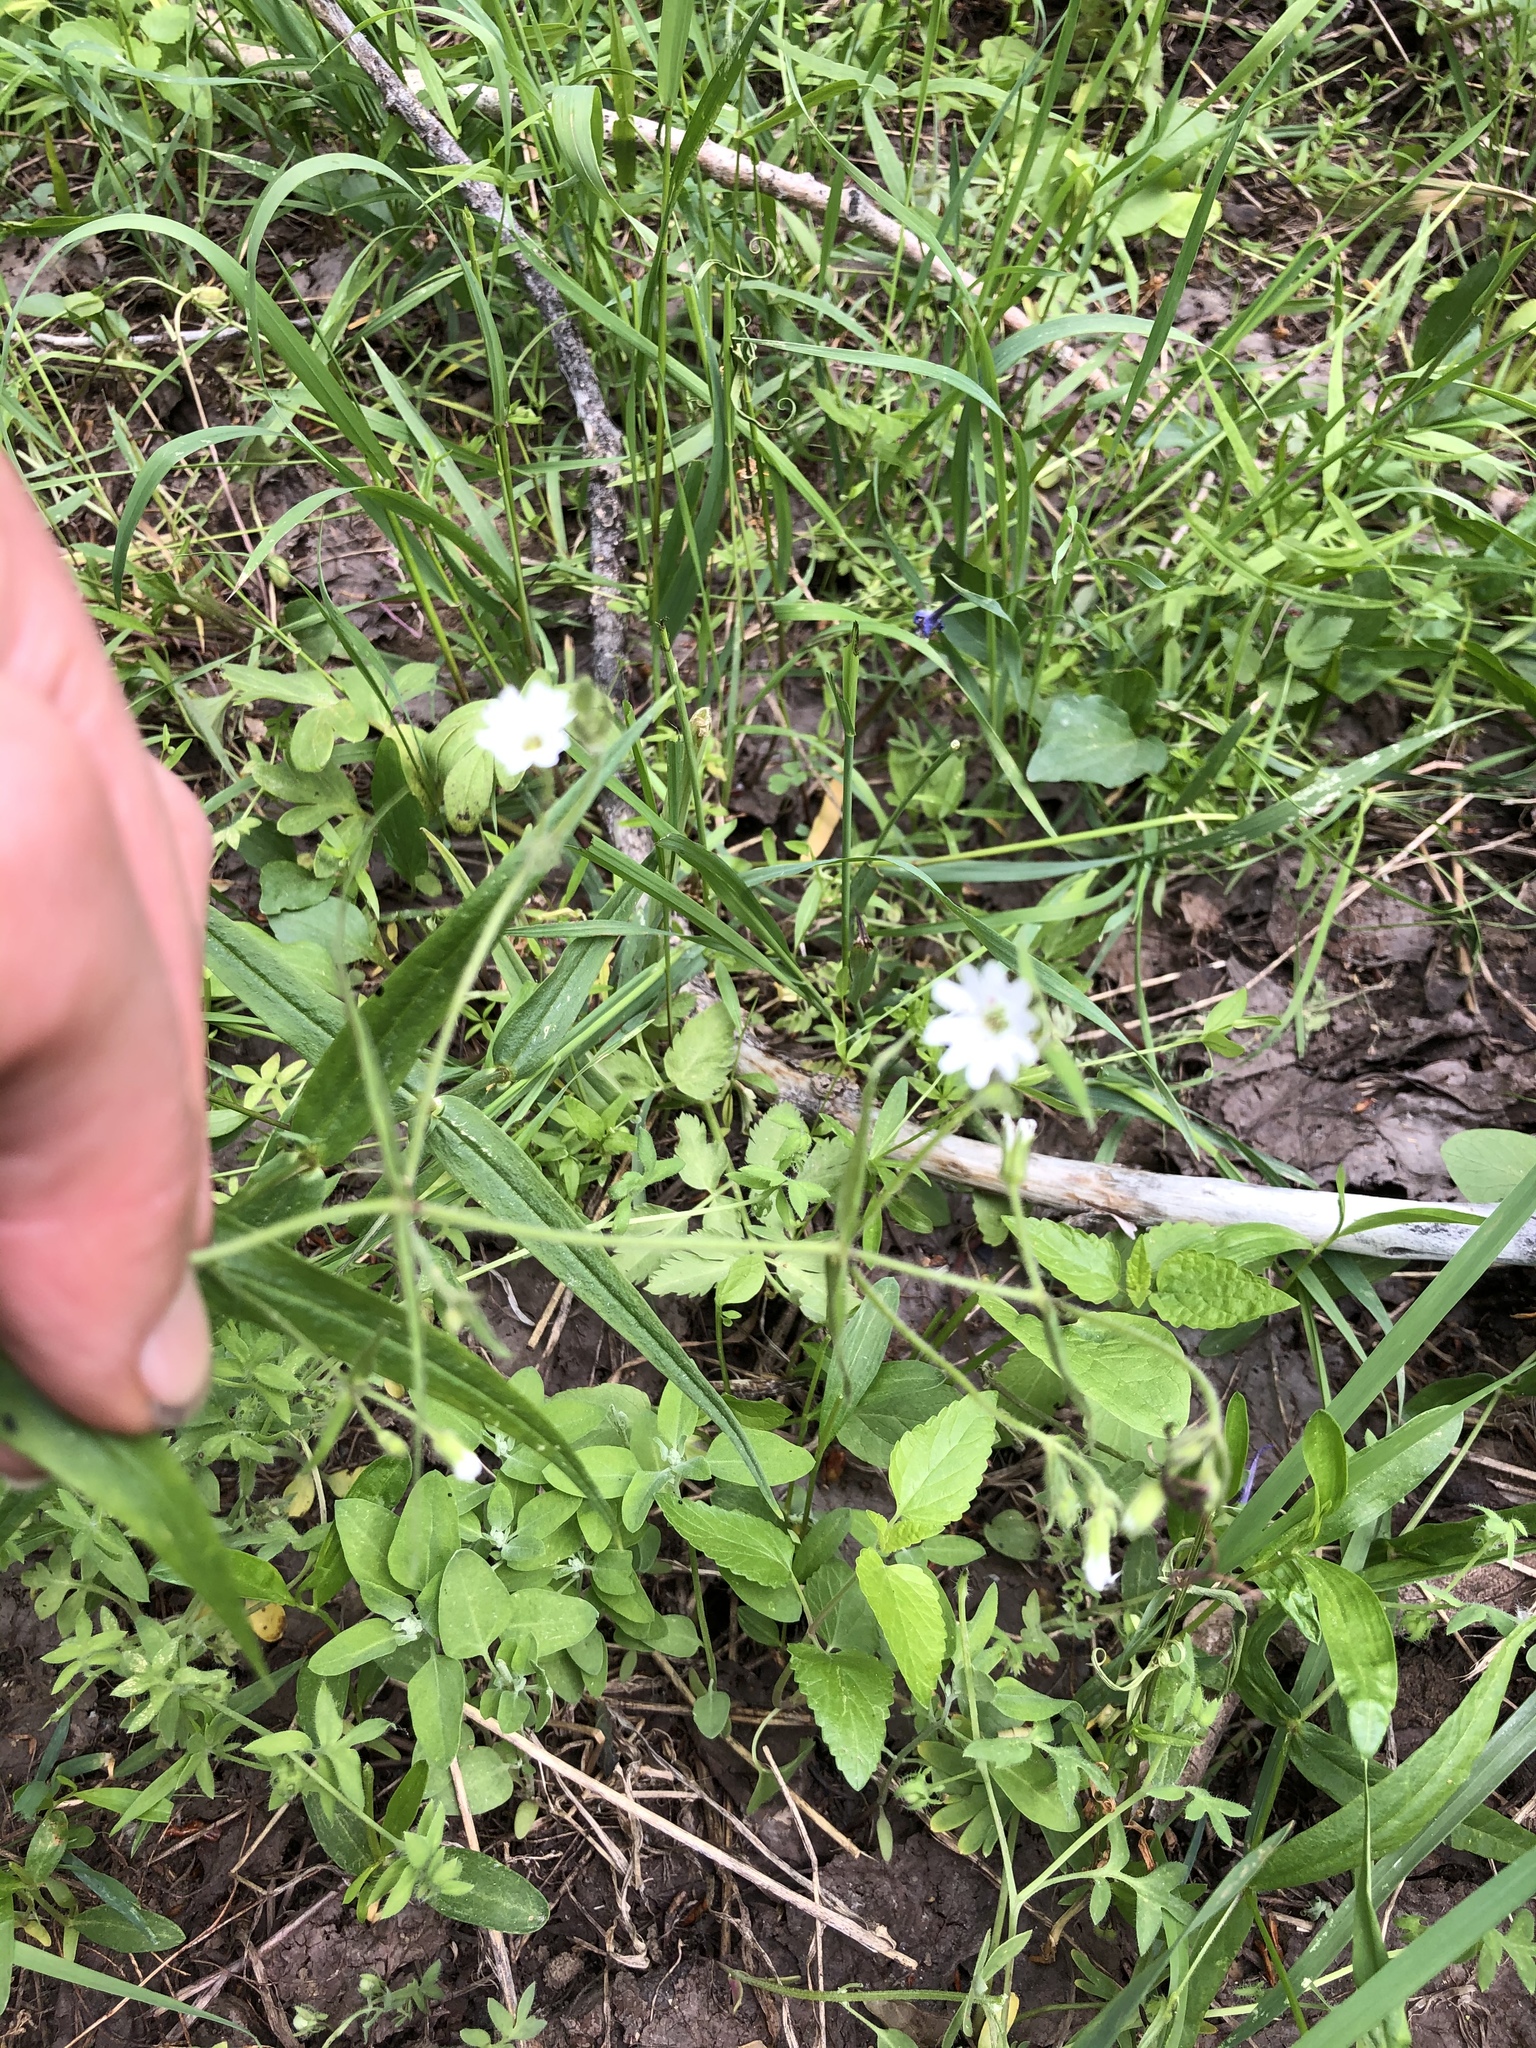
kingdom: Plantae
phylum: Tracheophyta
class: Magnoliopsida
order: Caryophyllales
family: Caryophyllaceae
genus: Schizotechium
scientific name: Schizotechium jamesianum
